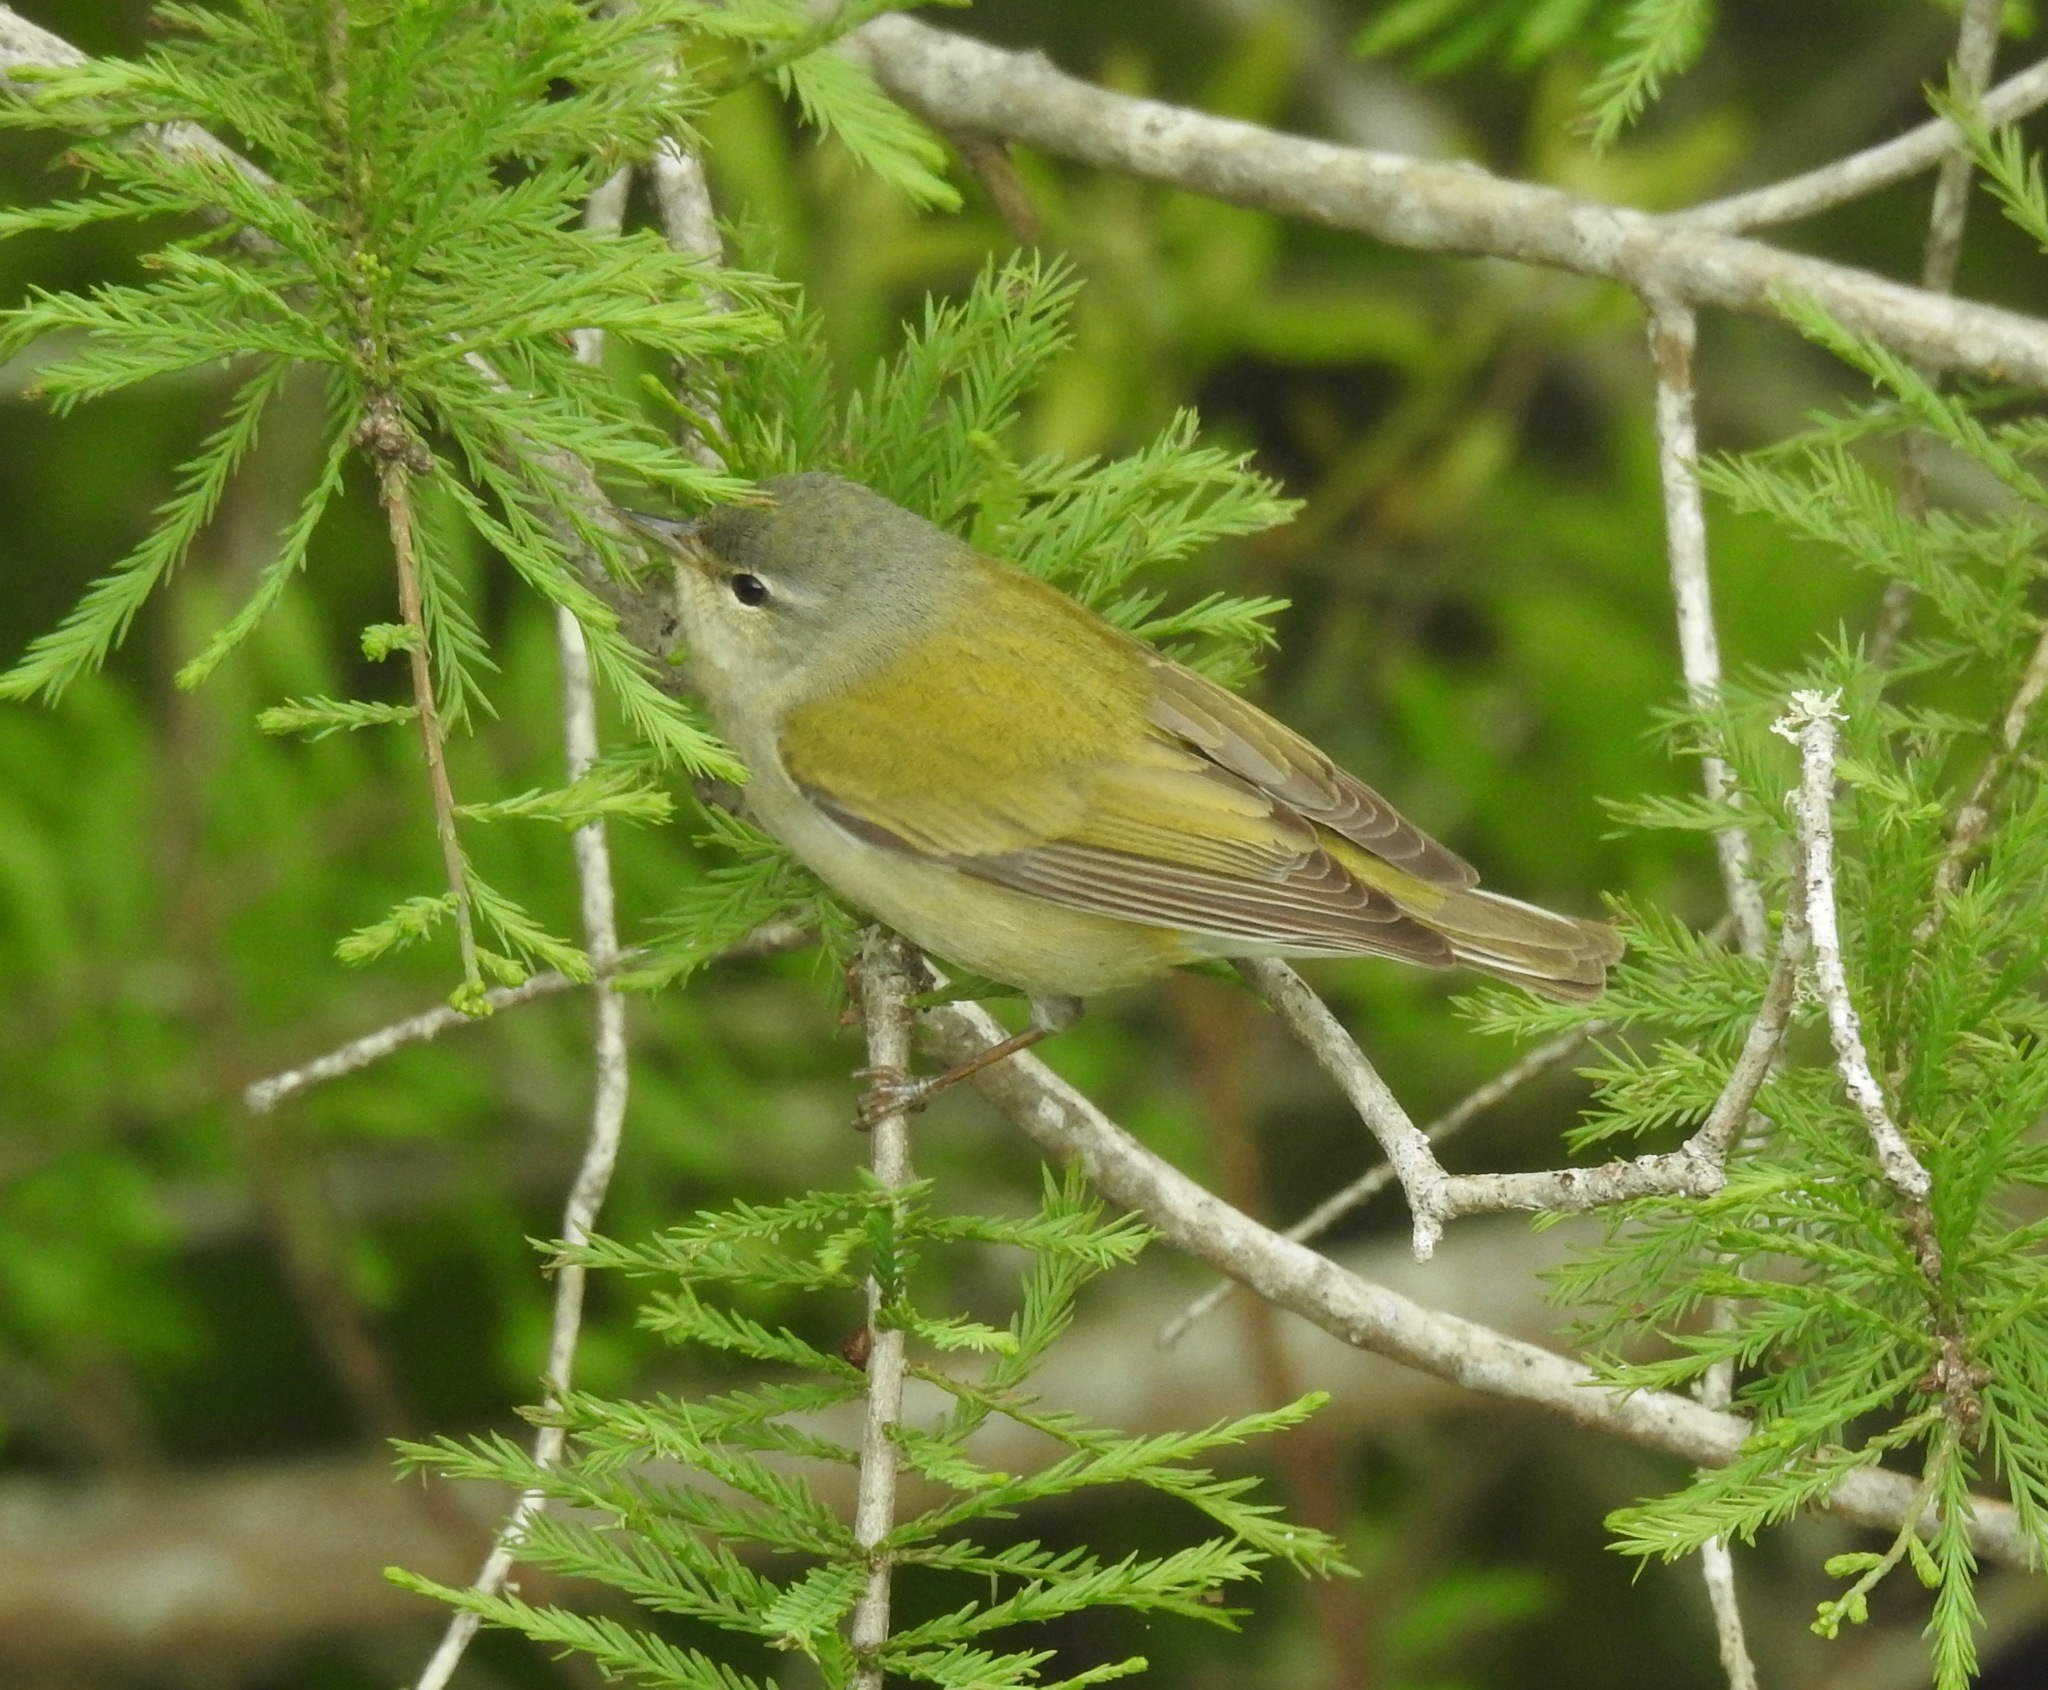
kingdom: Animalia
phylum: Chordata
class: Aves
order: Passeriformes
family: Parulidae
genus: Leiothlypis
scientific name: Leiothlypis peregrina
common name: Tennessee warbler
